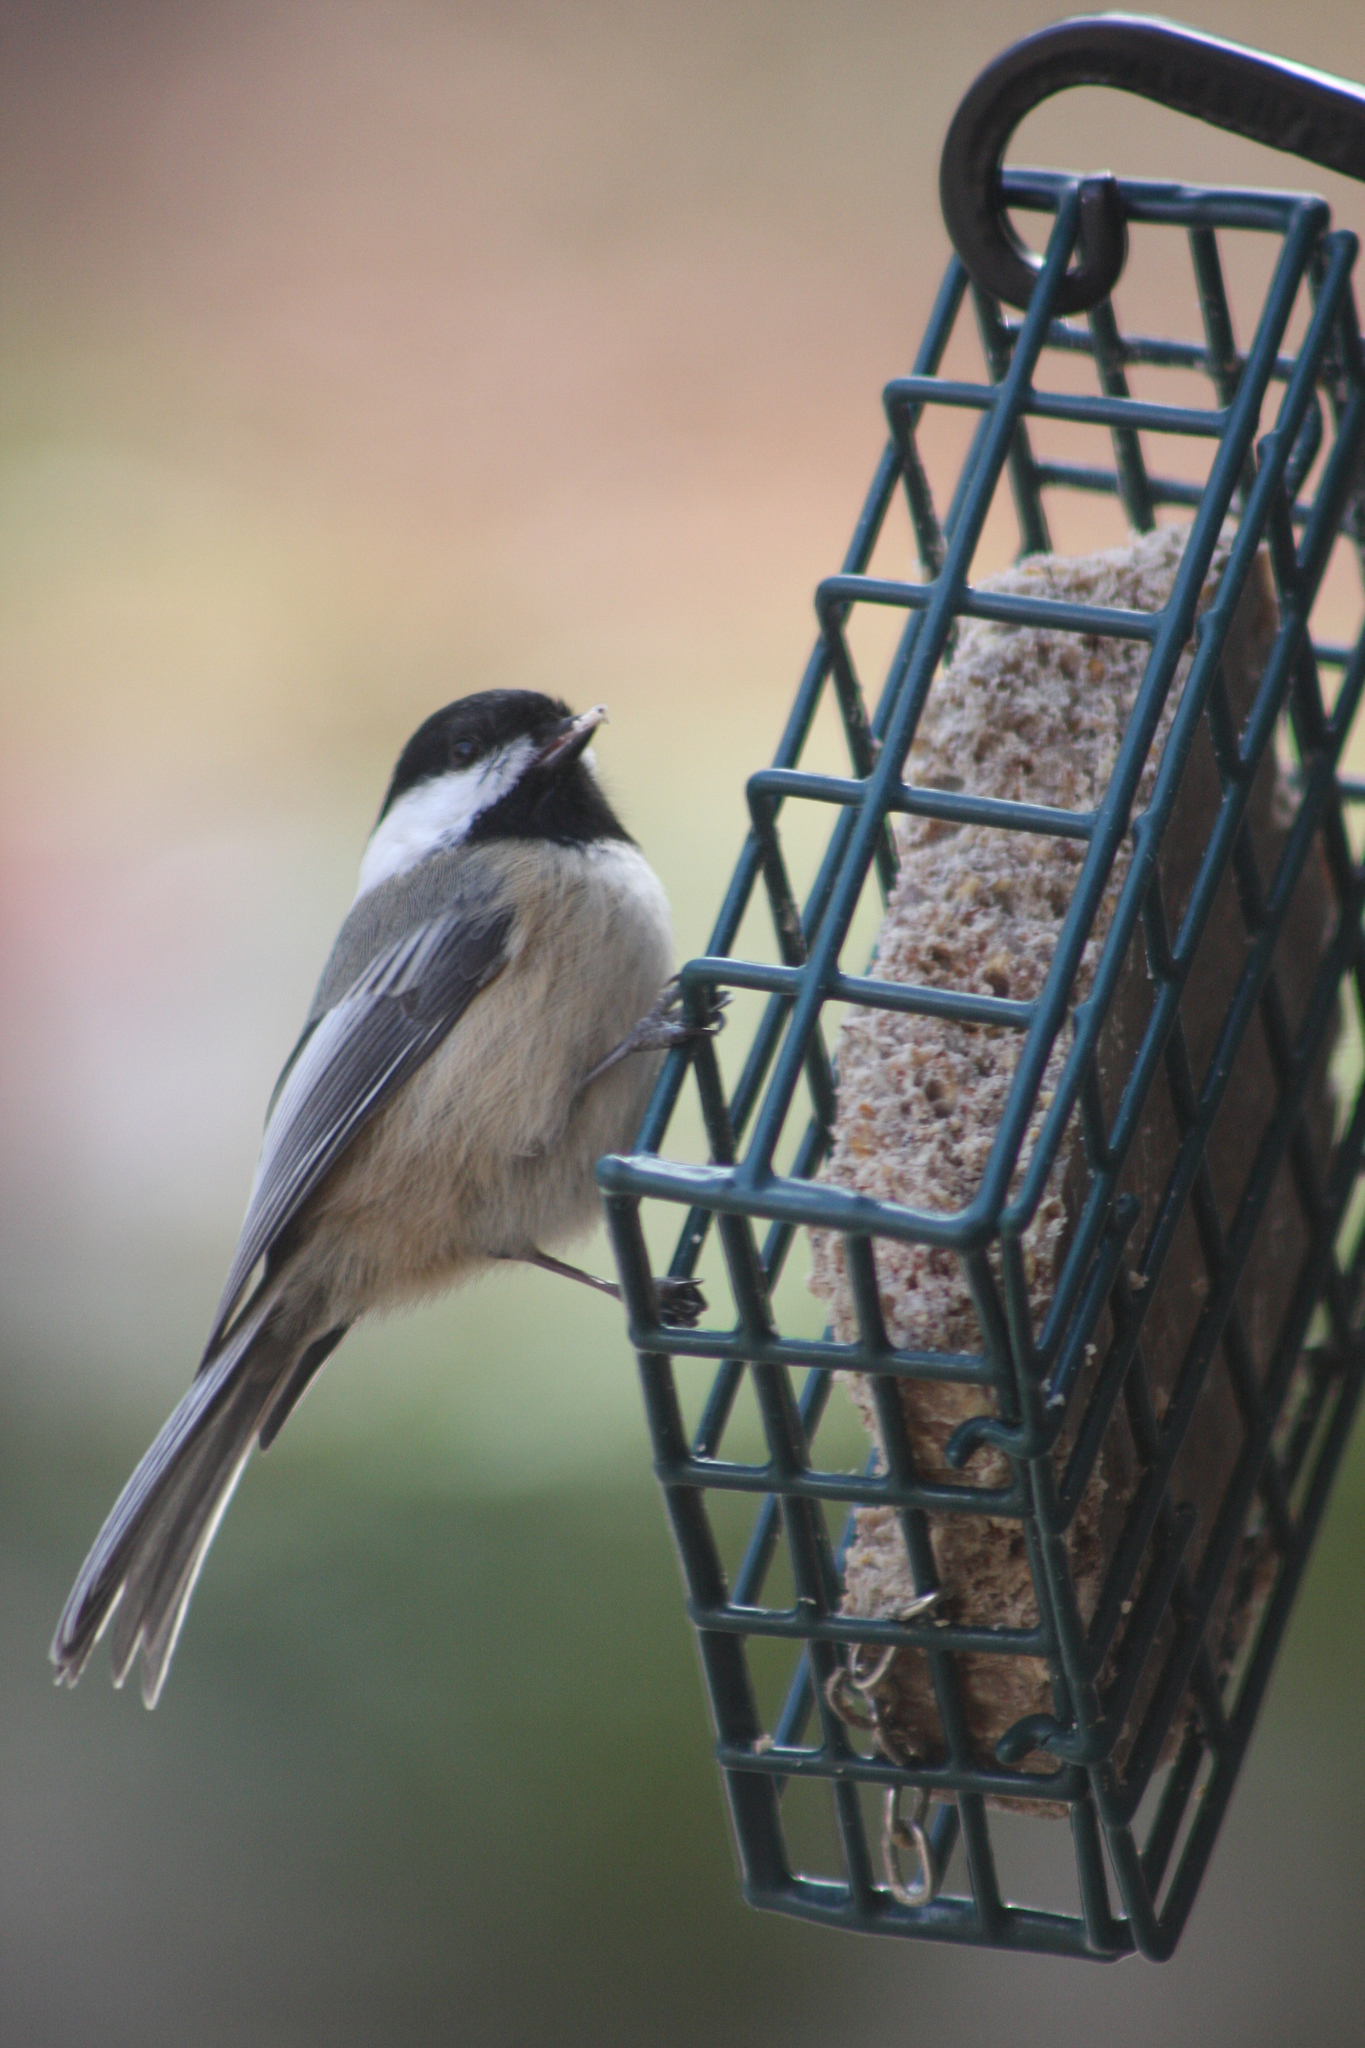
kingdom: Animalia
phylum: Chordata
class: Aves
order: Passeriformes
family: Paridae
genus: Poecile
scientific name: Poecile atricapillus
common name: Black-capped chickadee
